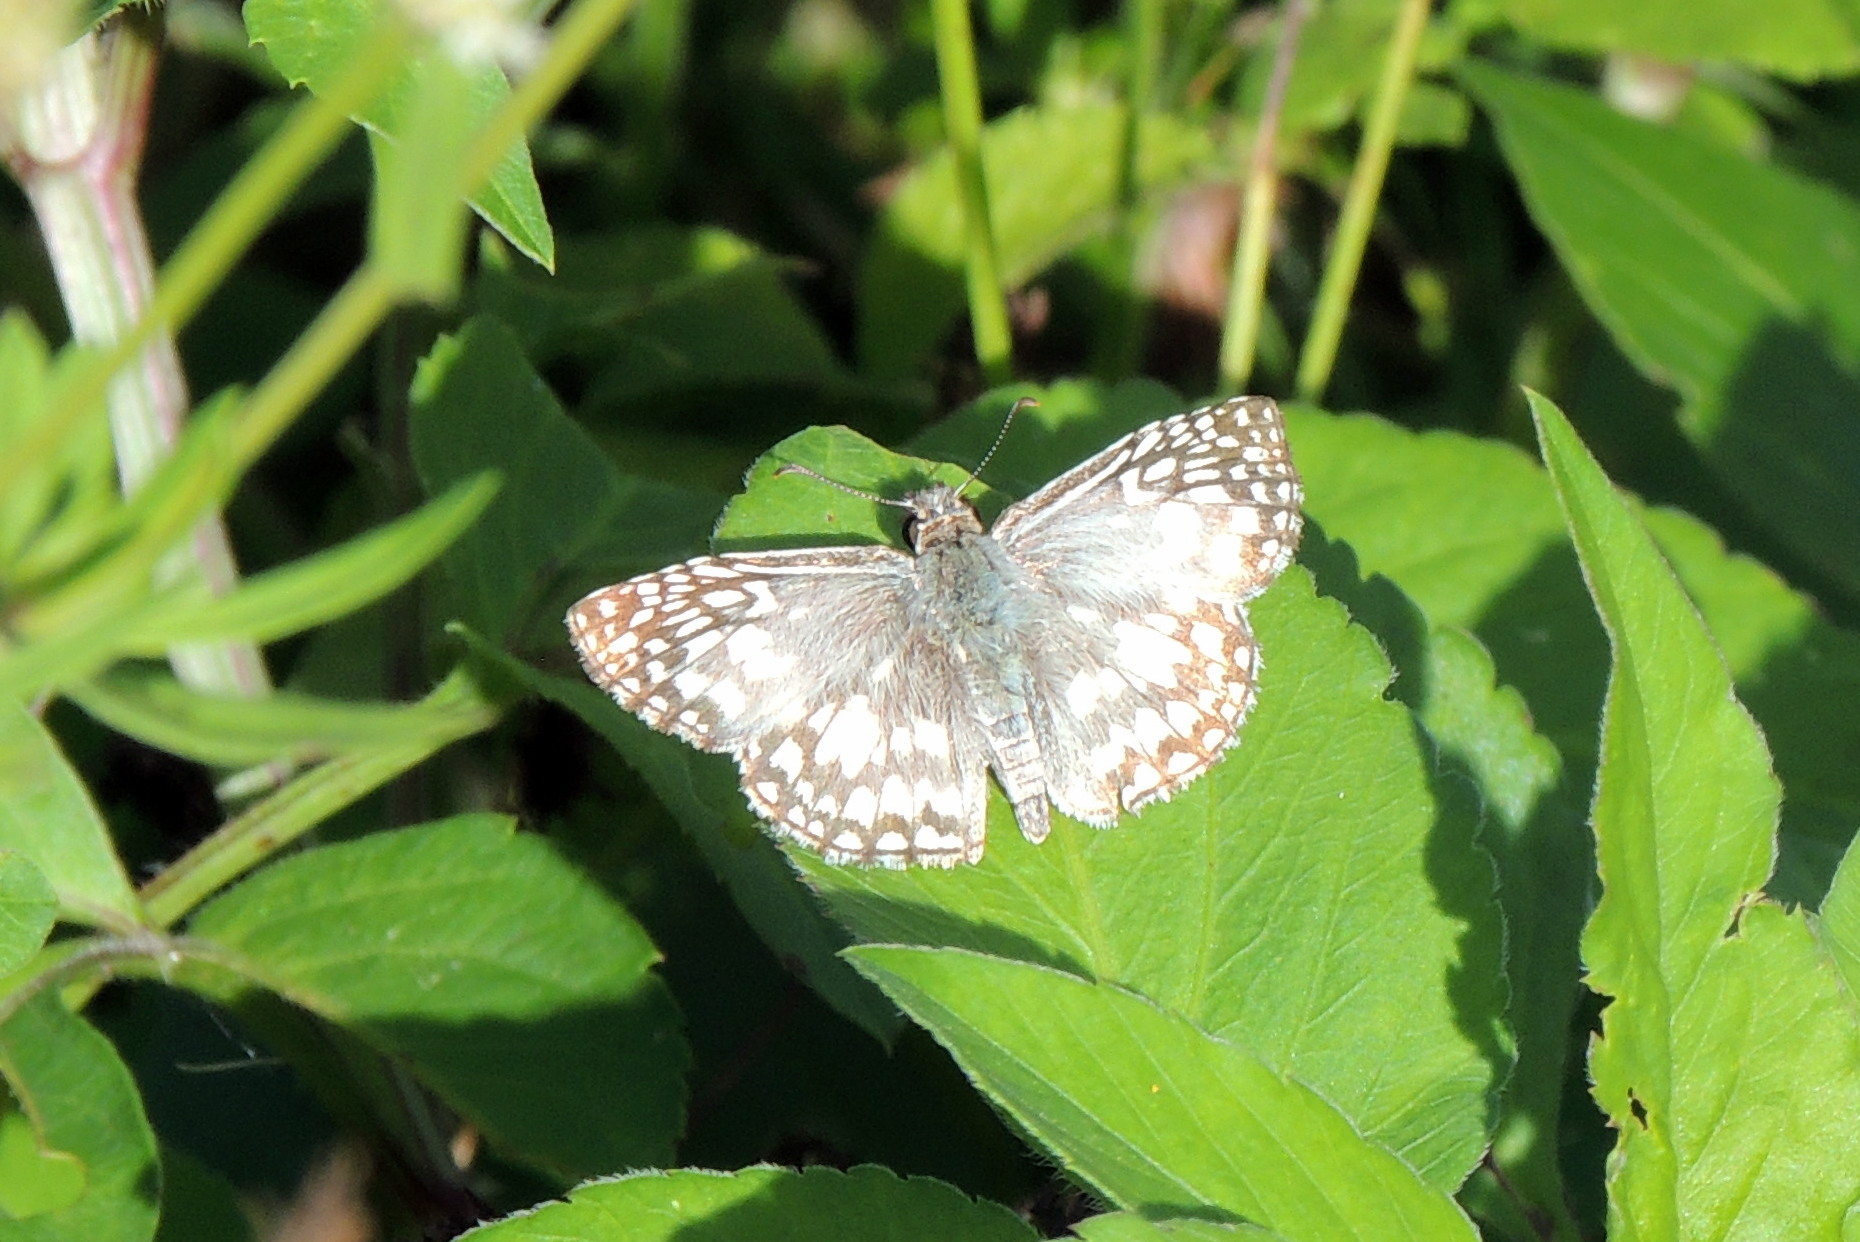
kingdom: Animalia
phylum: Arthropoda
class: Insecta
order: Lepidoptera
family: Hesperiidae
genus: Pyrgus
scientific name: Pyrgus oileus
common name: Tropical checkered-skipper
